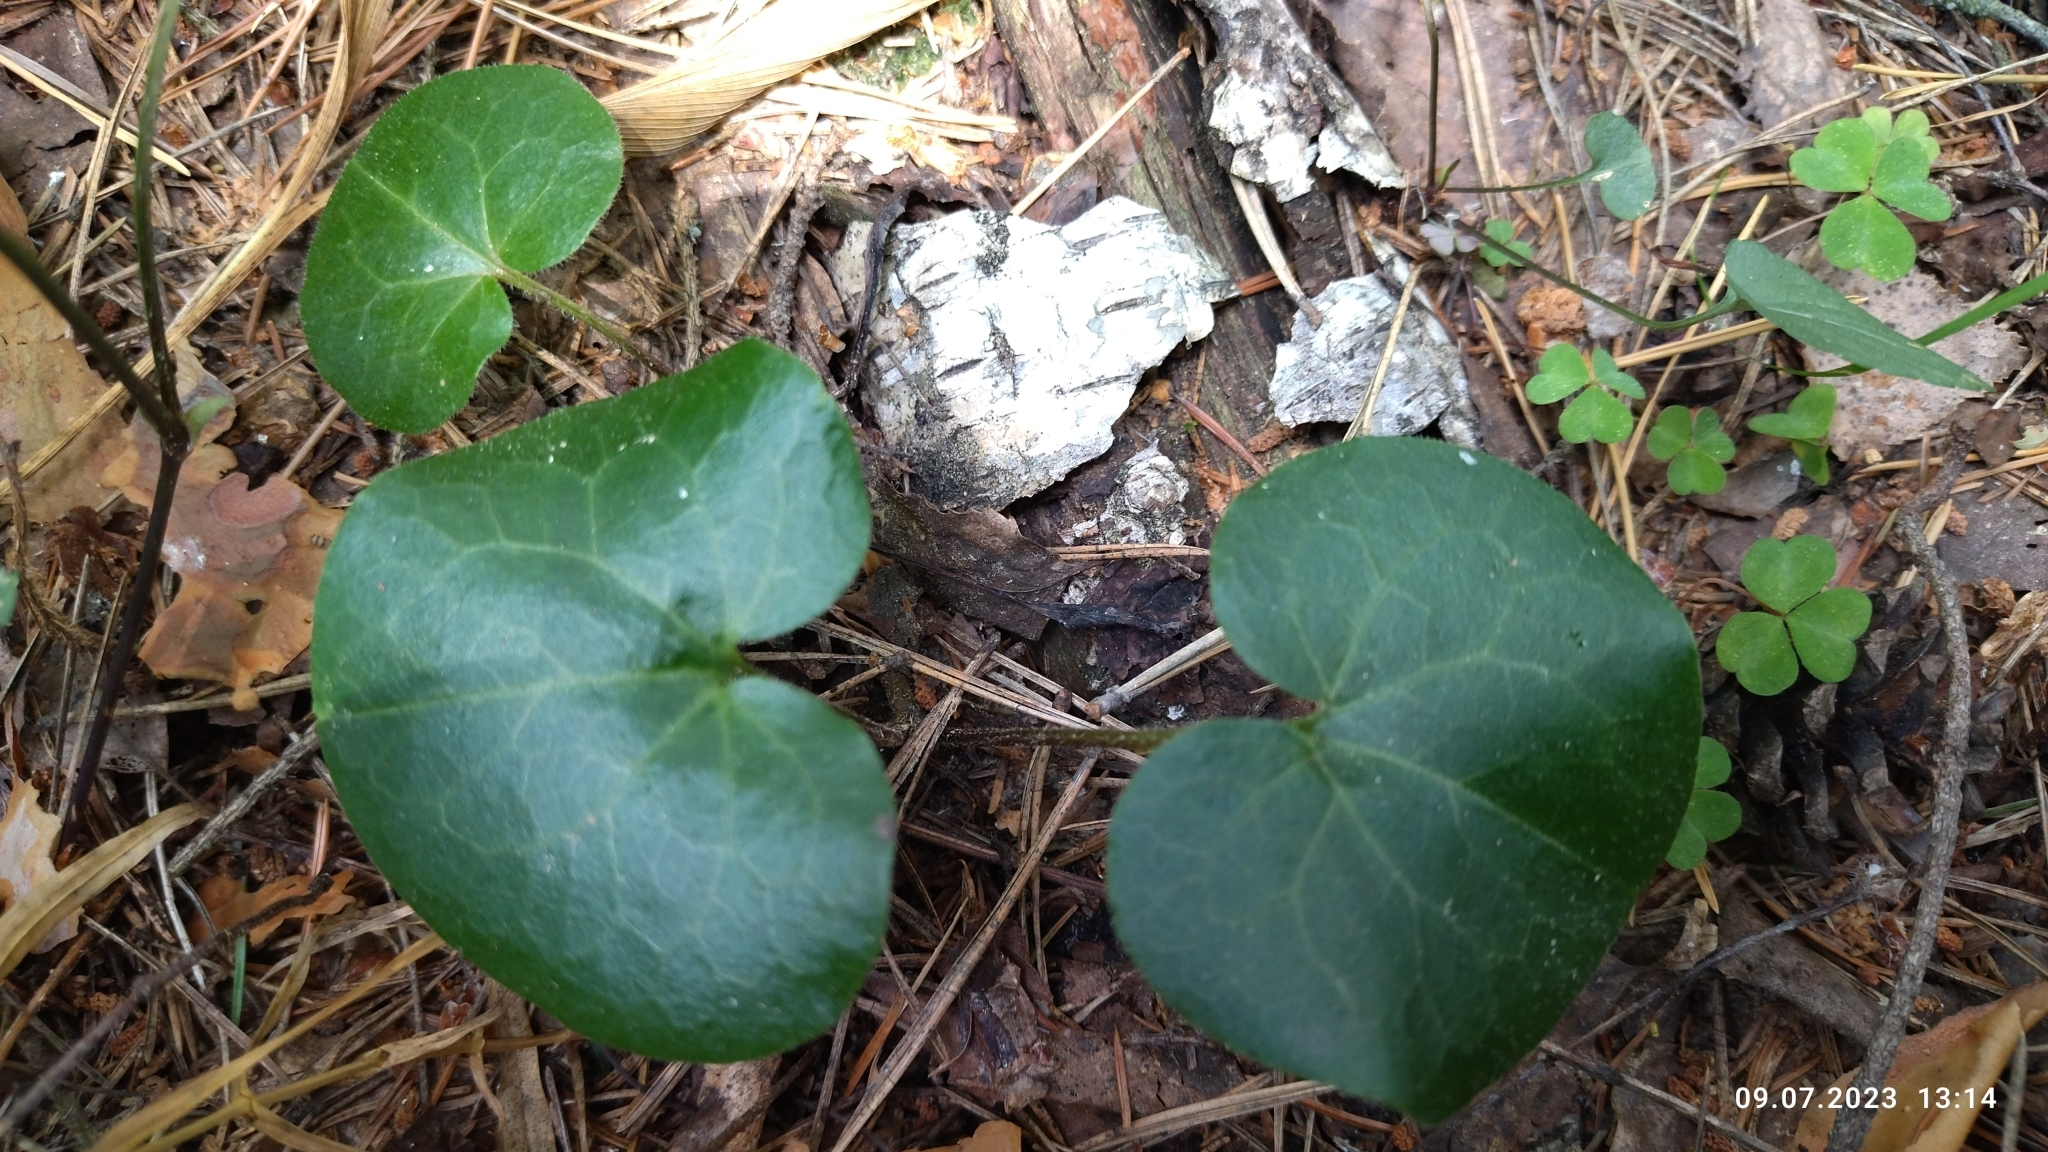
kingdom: Plantae
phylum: Tracheophyta
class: Magnoliopsida
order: Piperales
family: Aristolochiaceae
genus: Asarum
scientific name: Asarum europaeum
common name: Asarabacca
